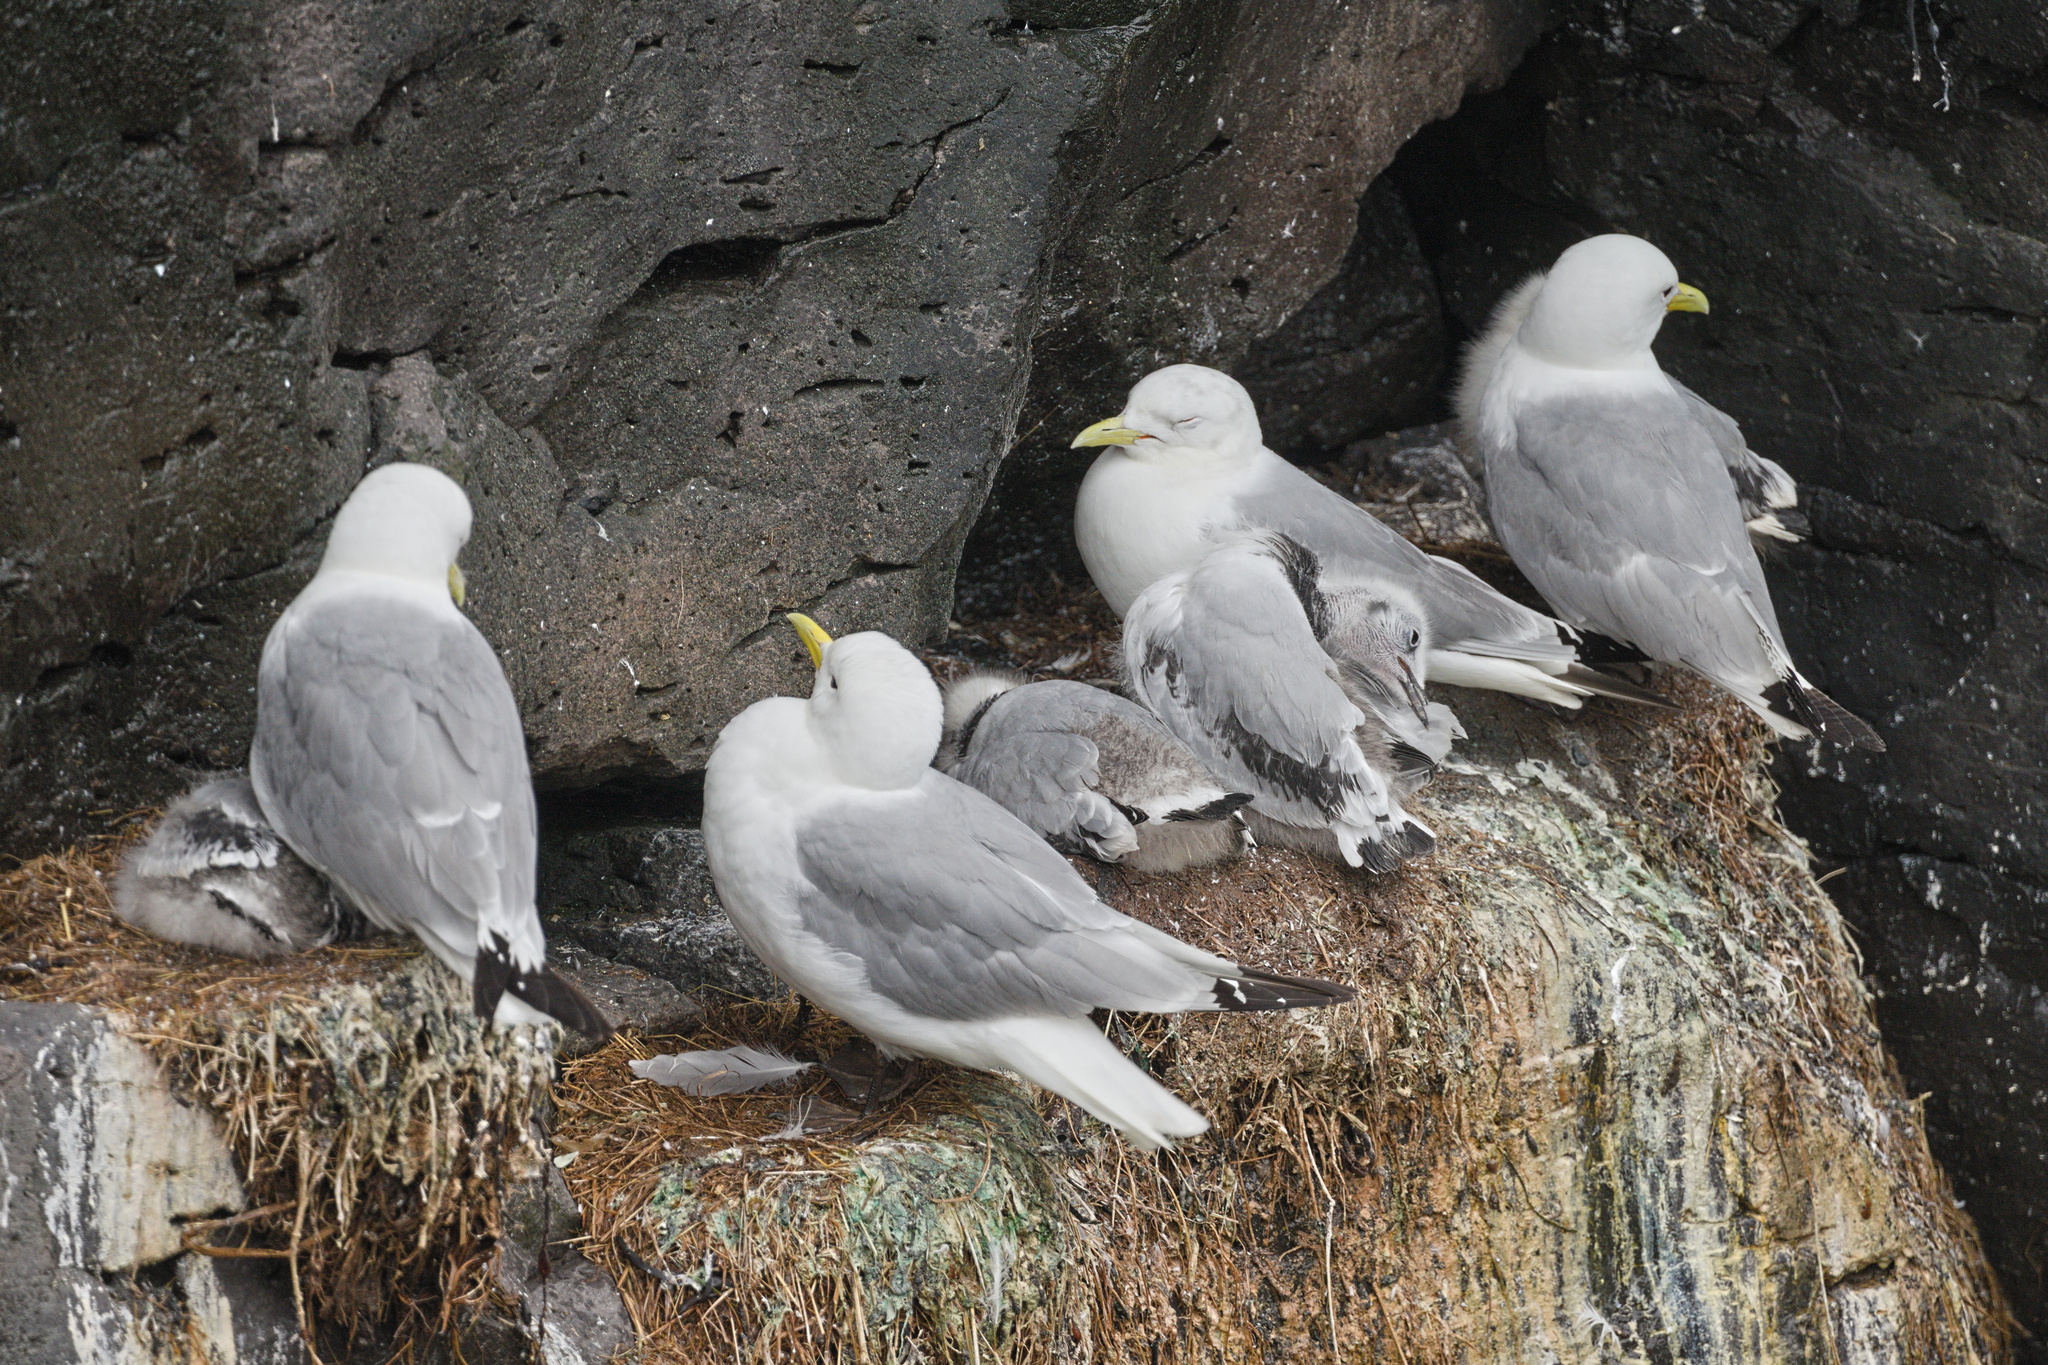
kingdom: Animalia
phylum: Chordata
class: Aves
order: Charadriiformes
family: Laridae
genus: Rissa
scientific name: Rissa tridactyla
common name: Black-legged kittiwake
